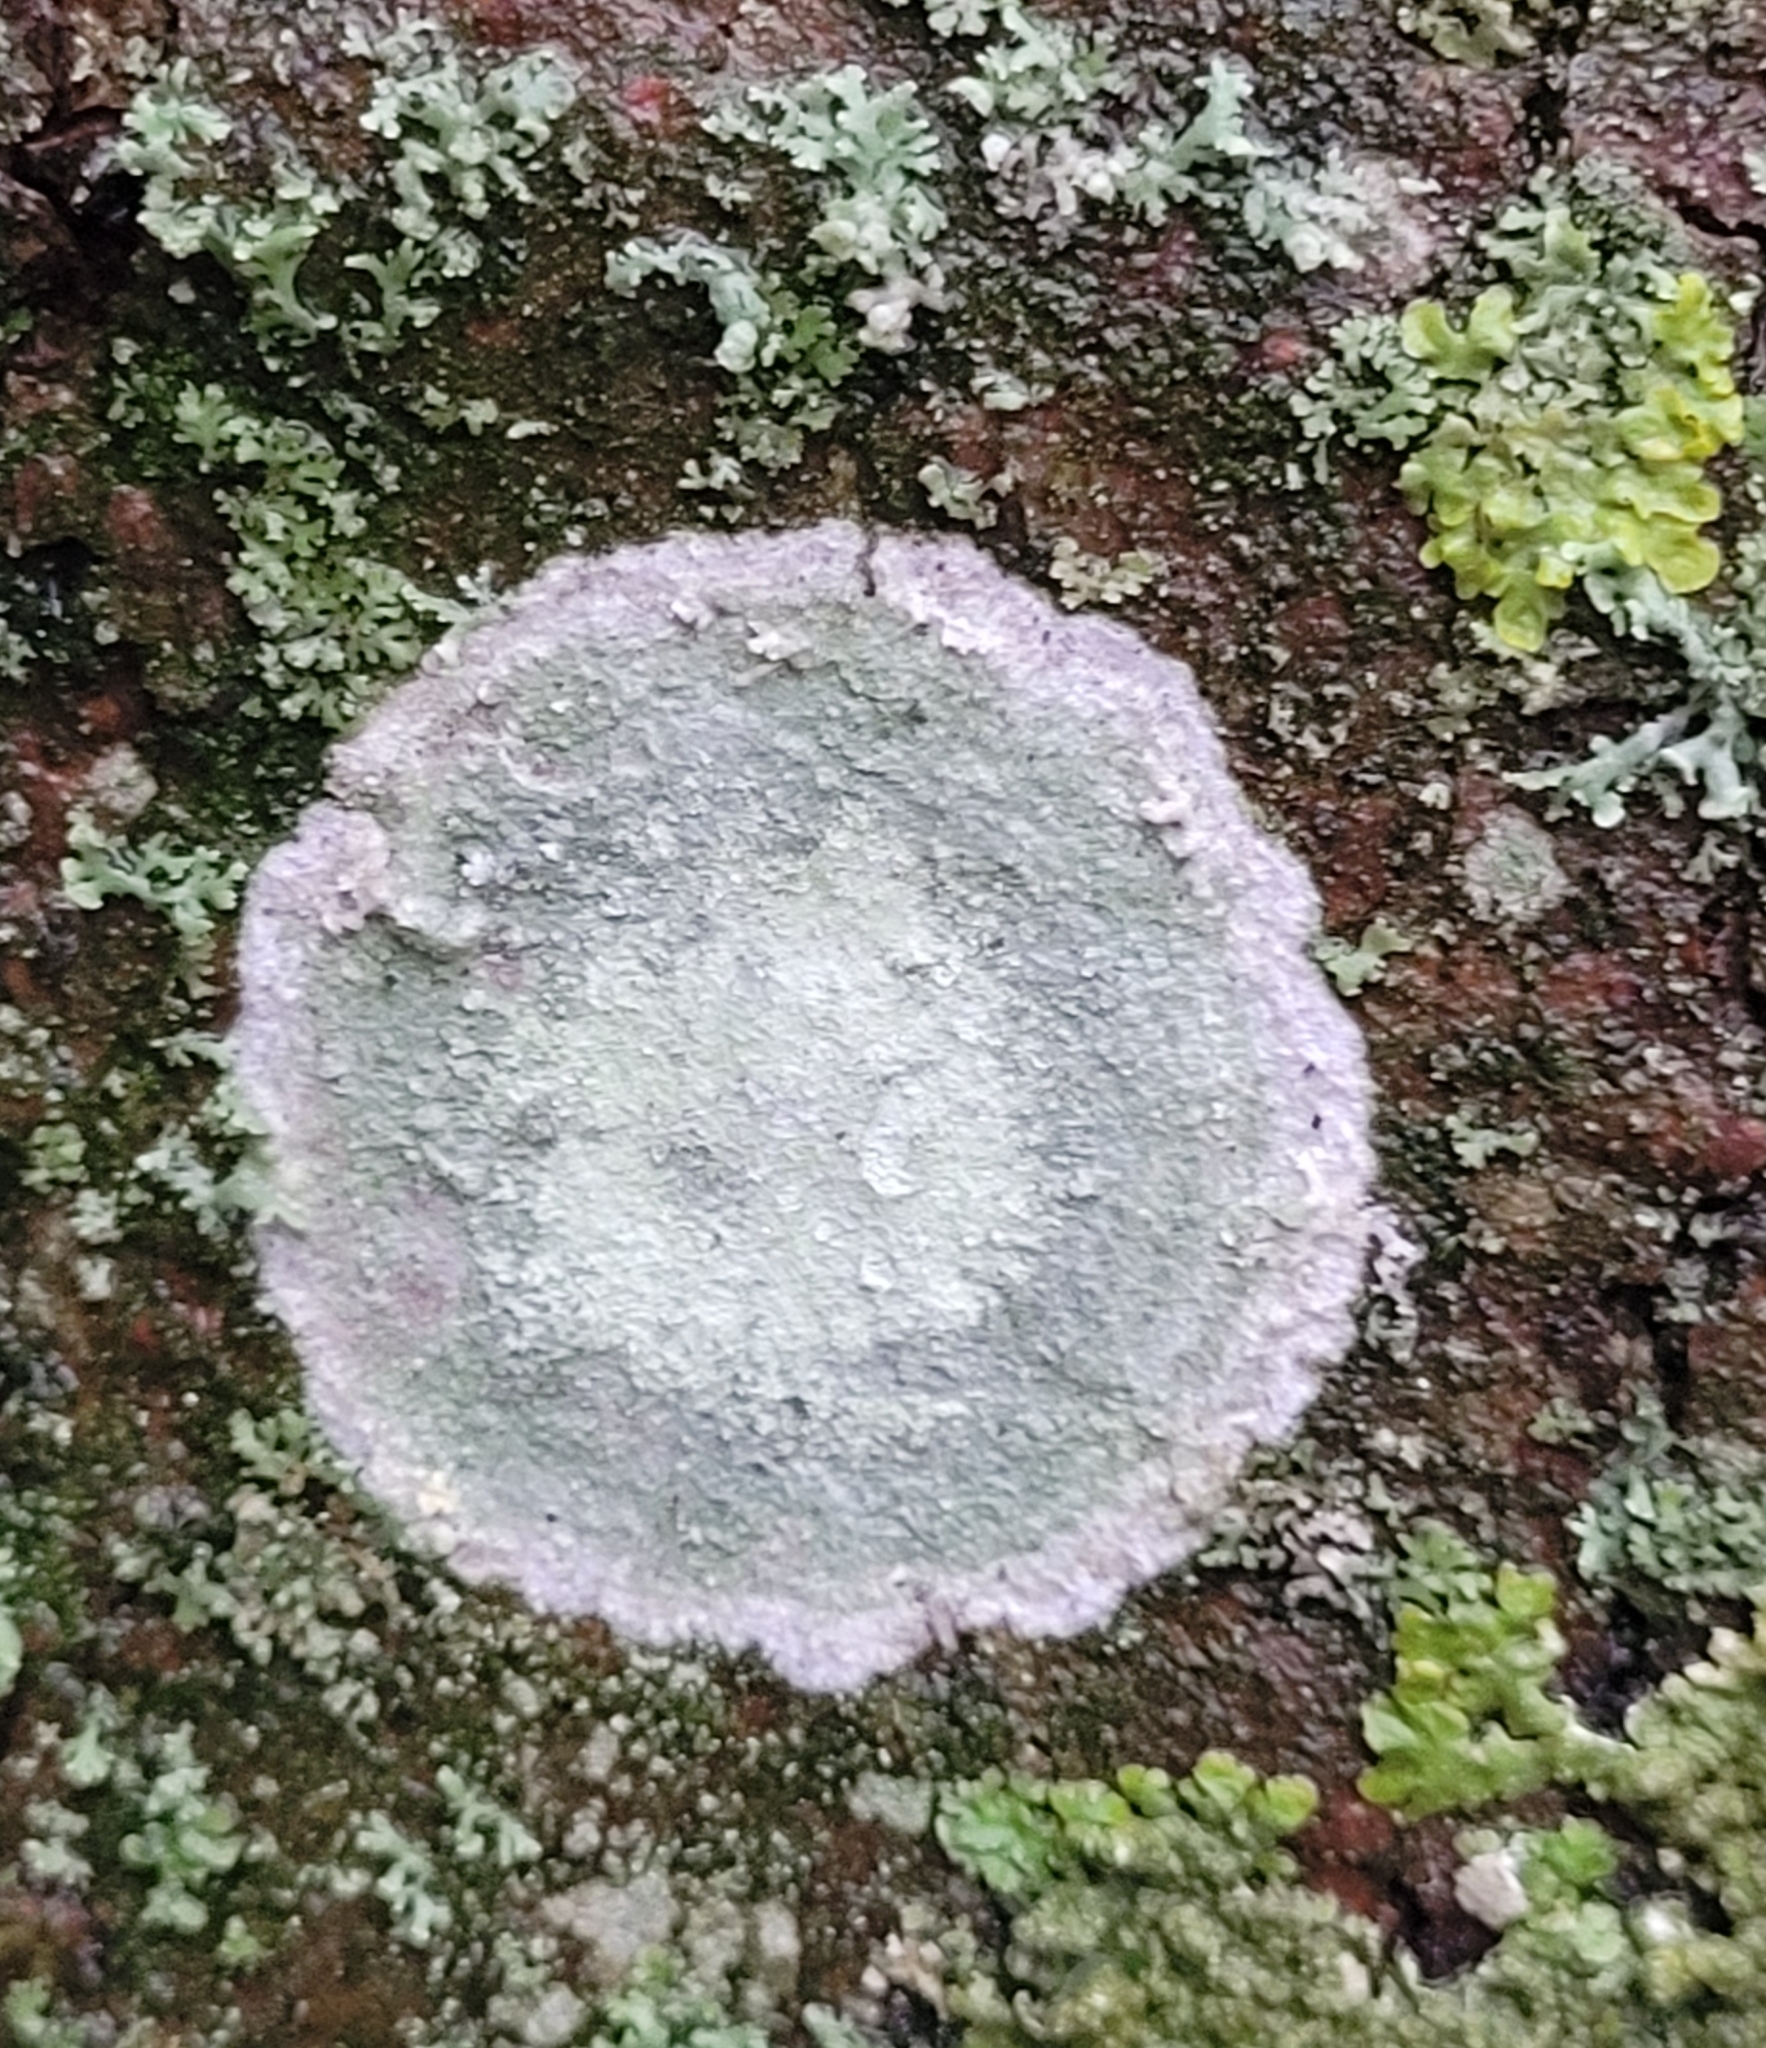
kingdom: Fungi
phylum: Ascomycota
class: Lecanoromycetes
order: Ostropales
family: Phlyctidaceae
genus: Phlyctis
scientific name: Phlyctis argena
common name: Whitewash lichen
